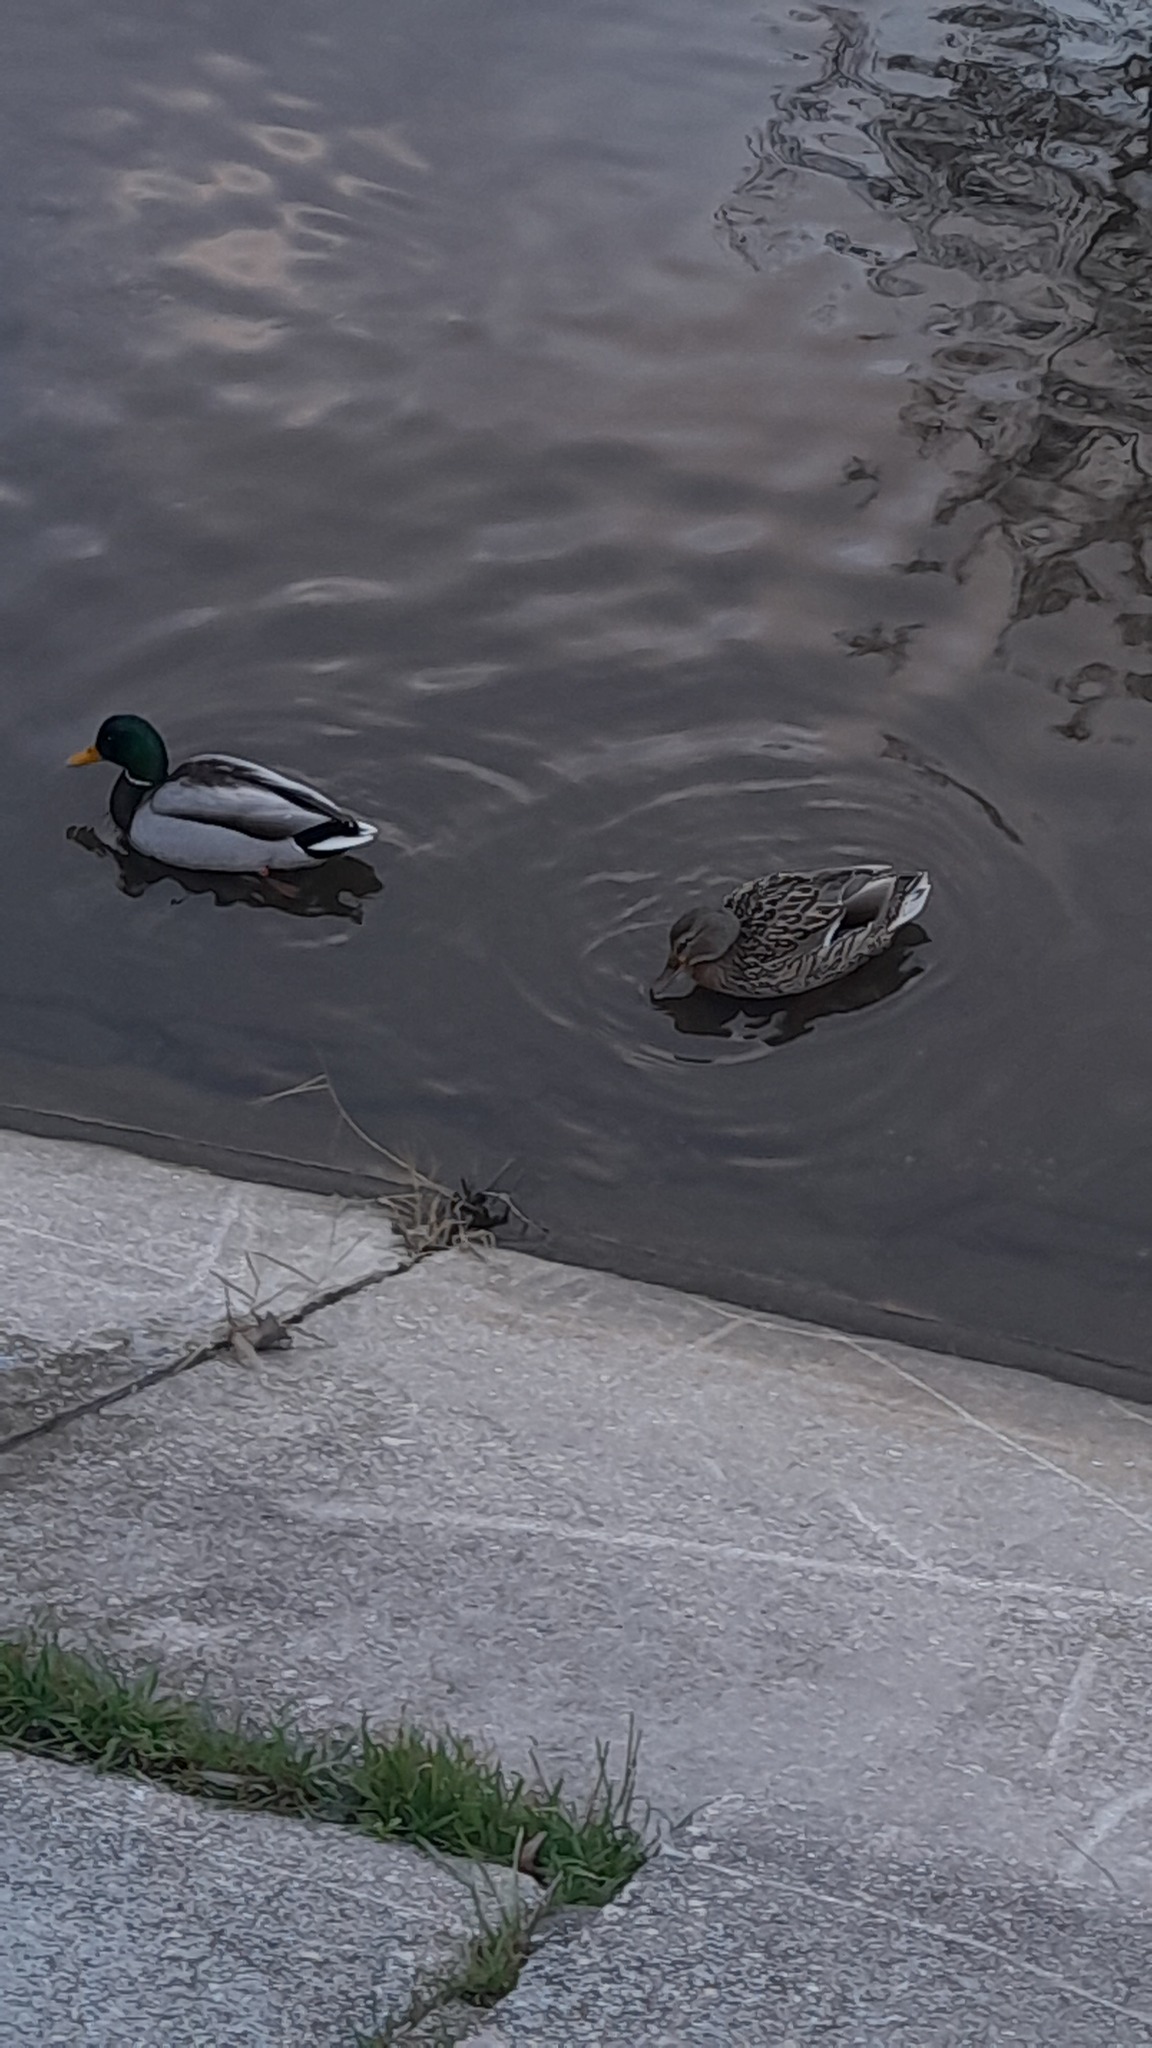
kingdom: Animalia
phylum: Chordata
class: Aves
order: Anseriformes
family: Anatidae
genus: Anas
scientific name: Anas platyrhynchos
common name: Mallard
